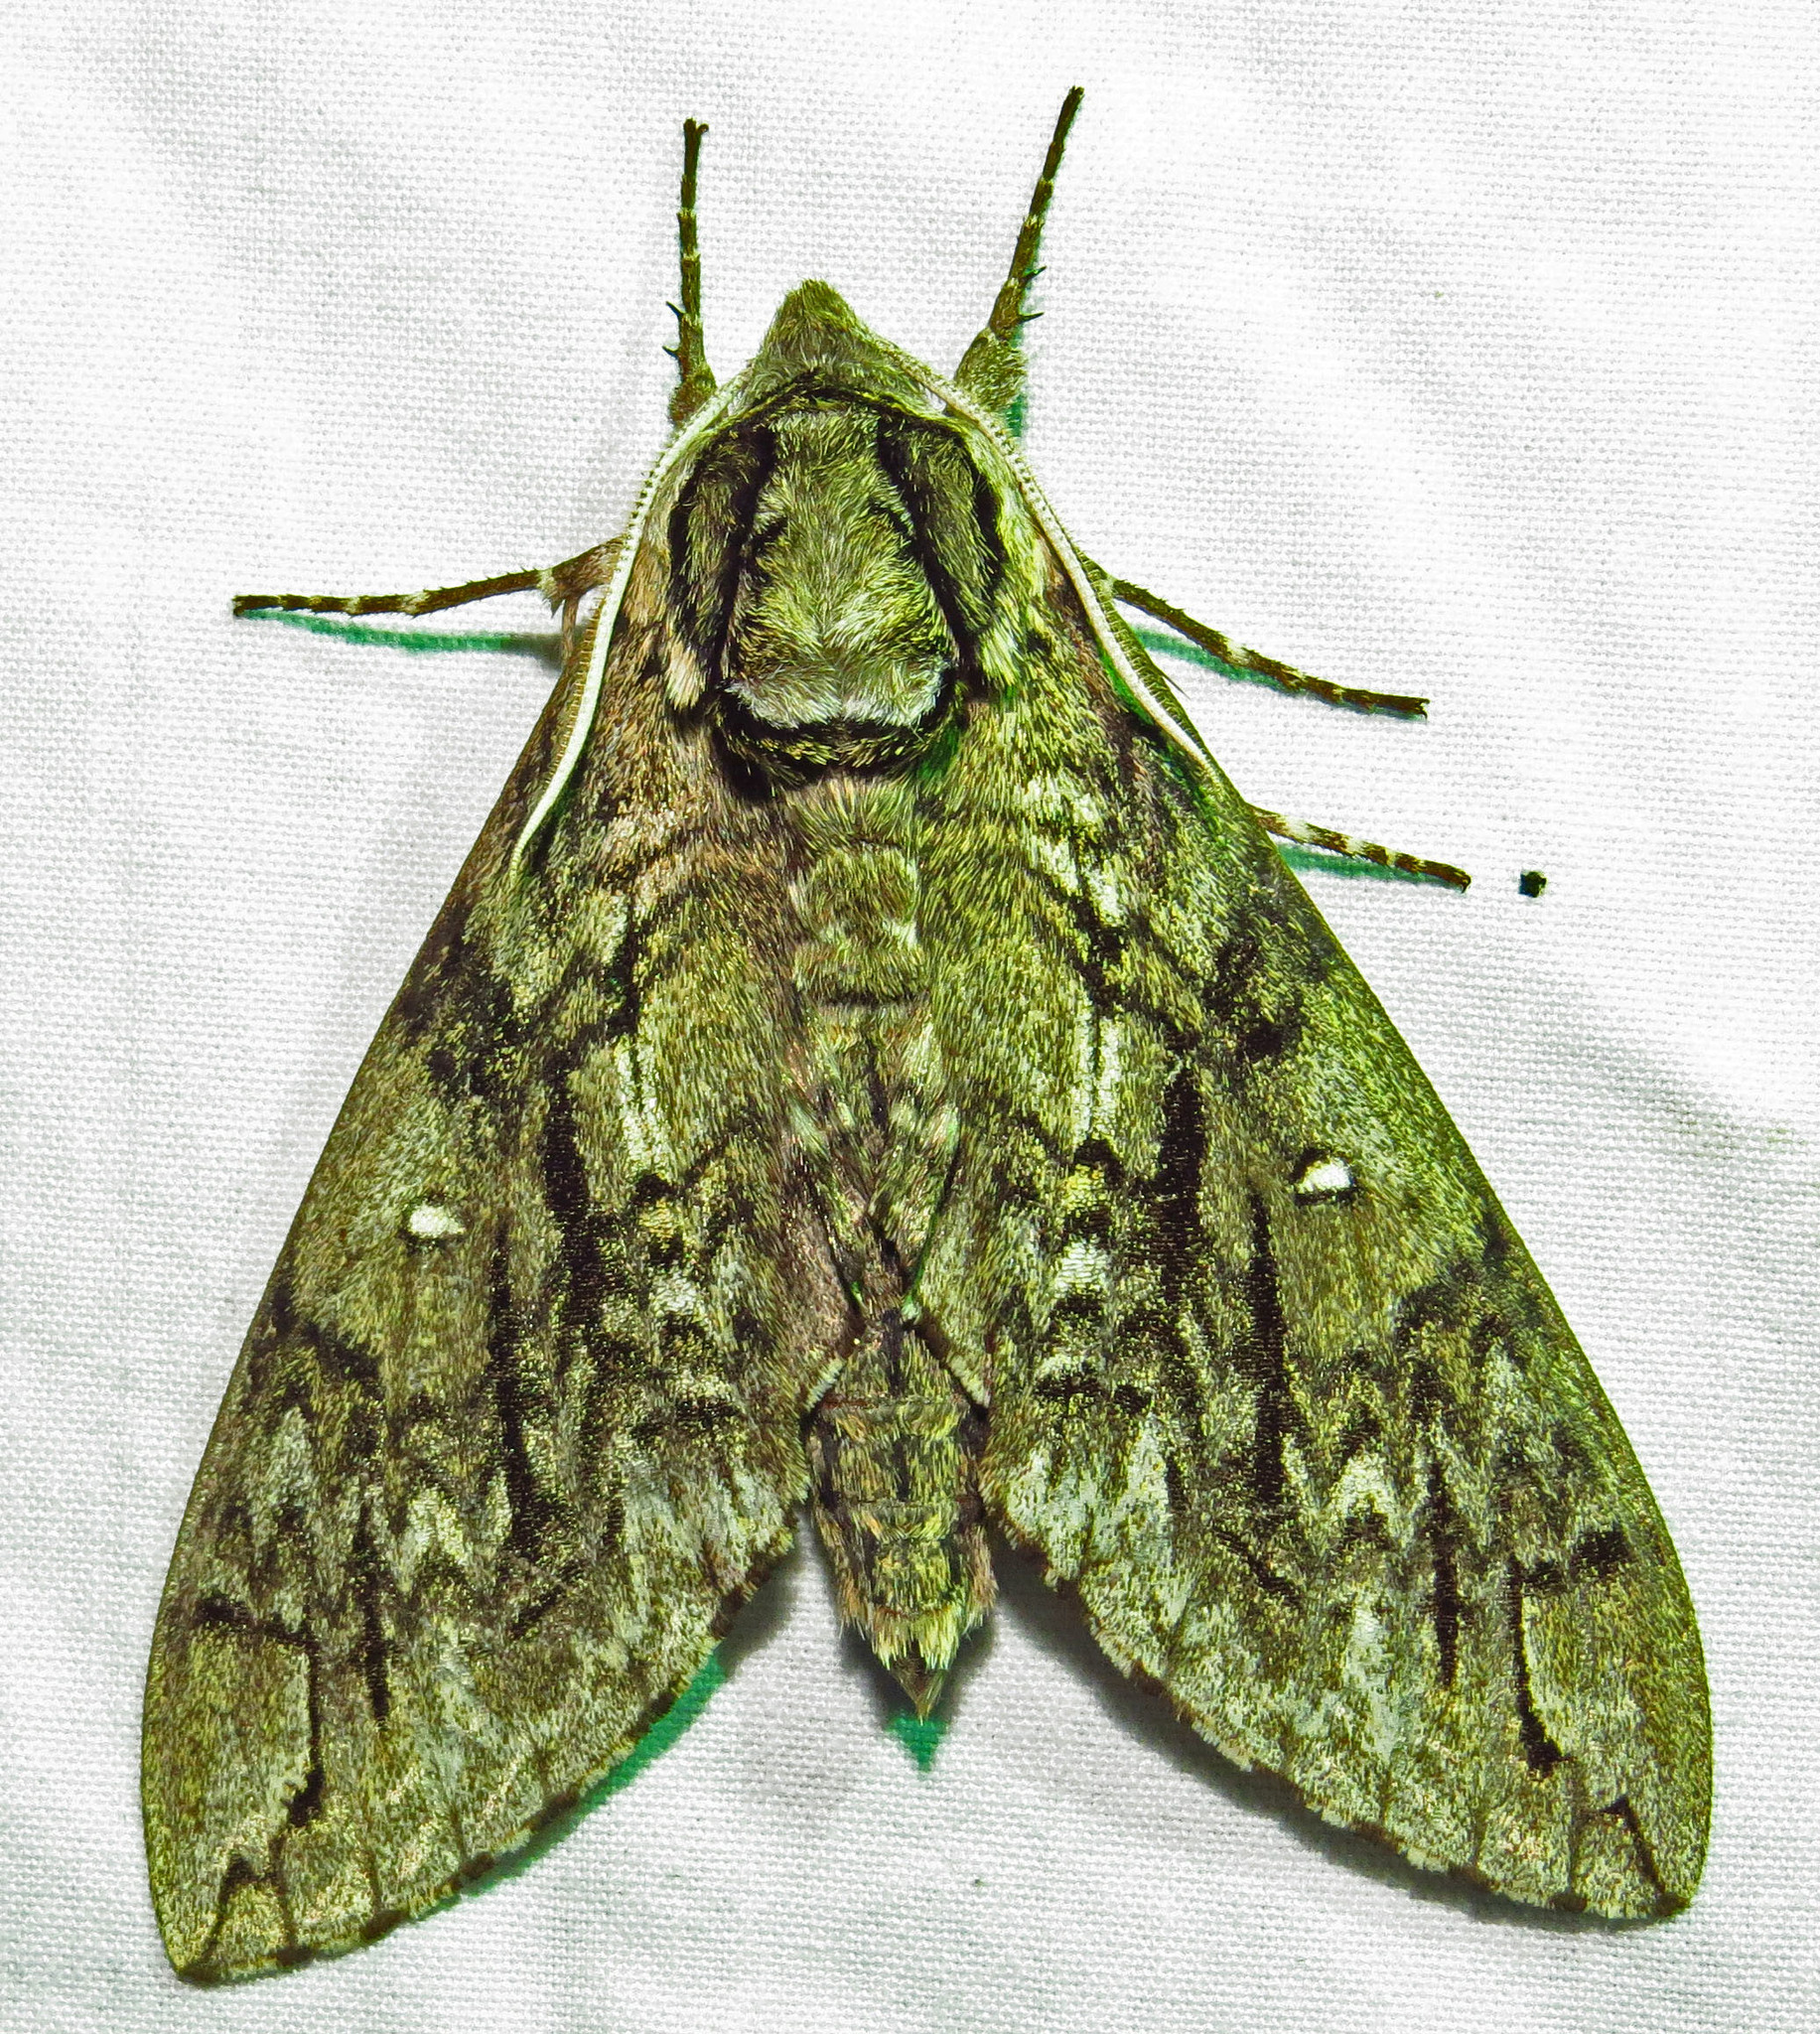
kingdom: Animalia
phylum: Arthropoda
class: Insecta
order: Lepidoptera
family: Sphingidae
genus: Ceratomia
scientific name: Ceratomia undulosa
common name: Waved sphinx
